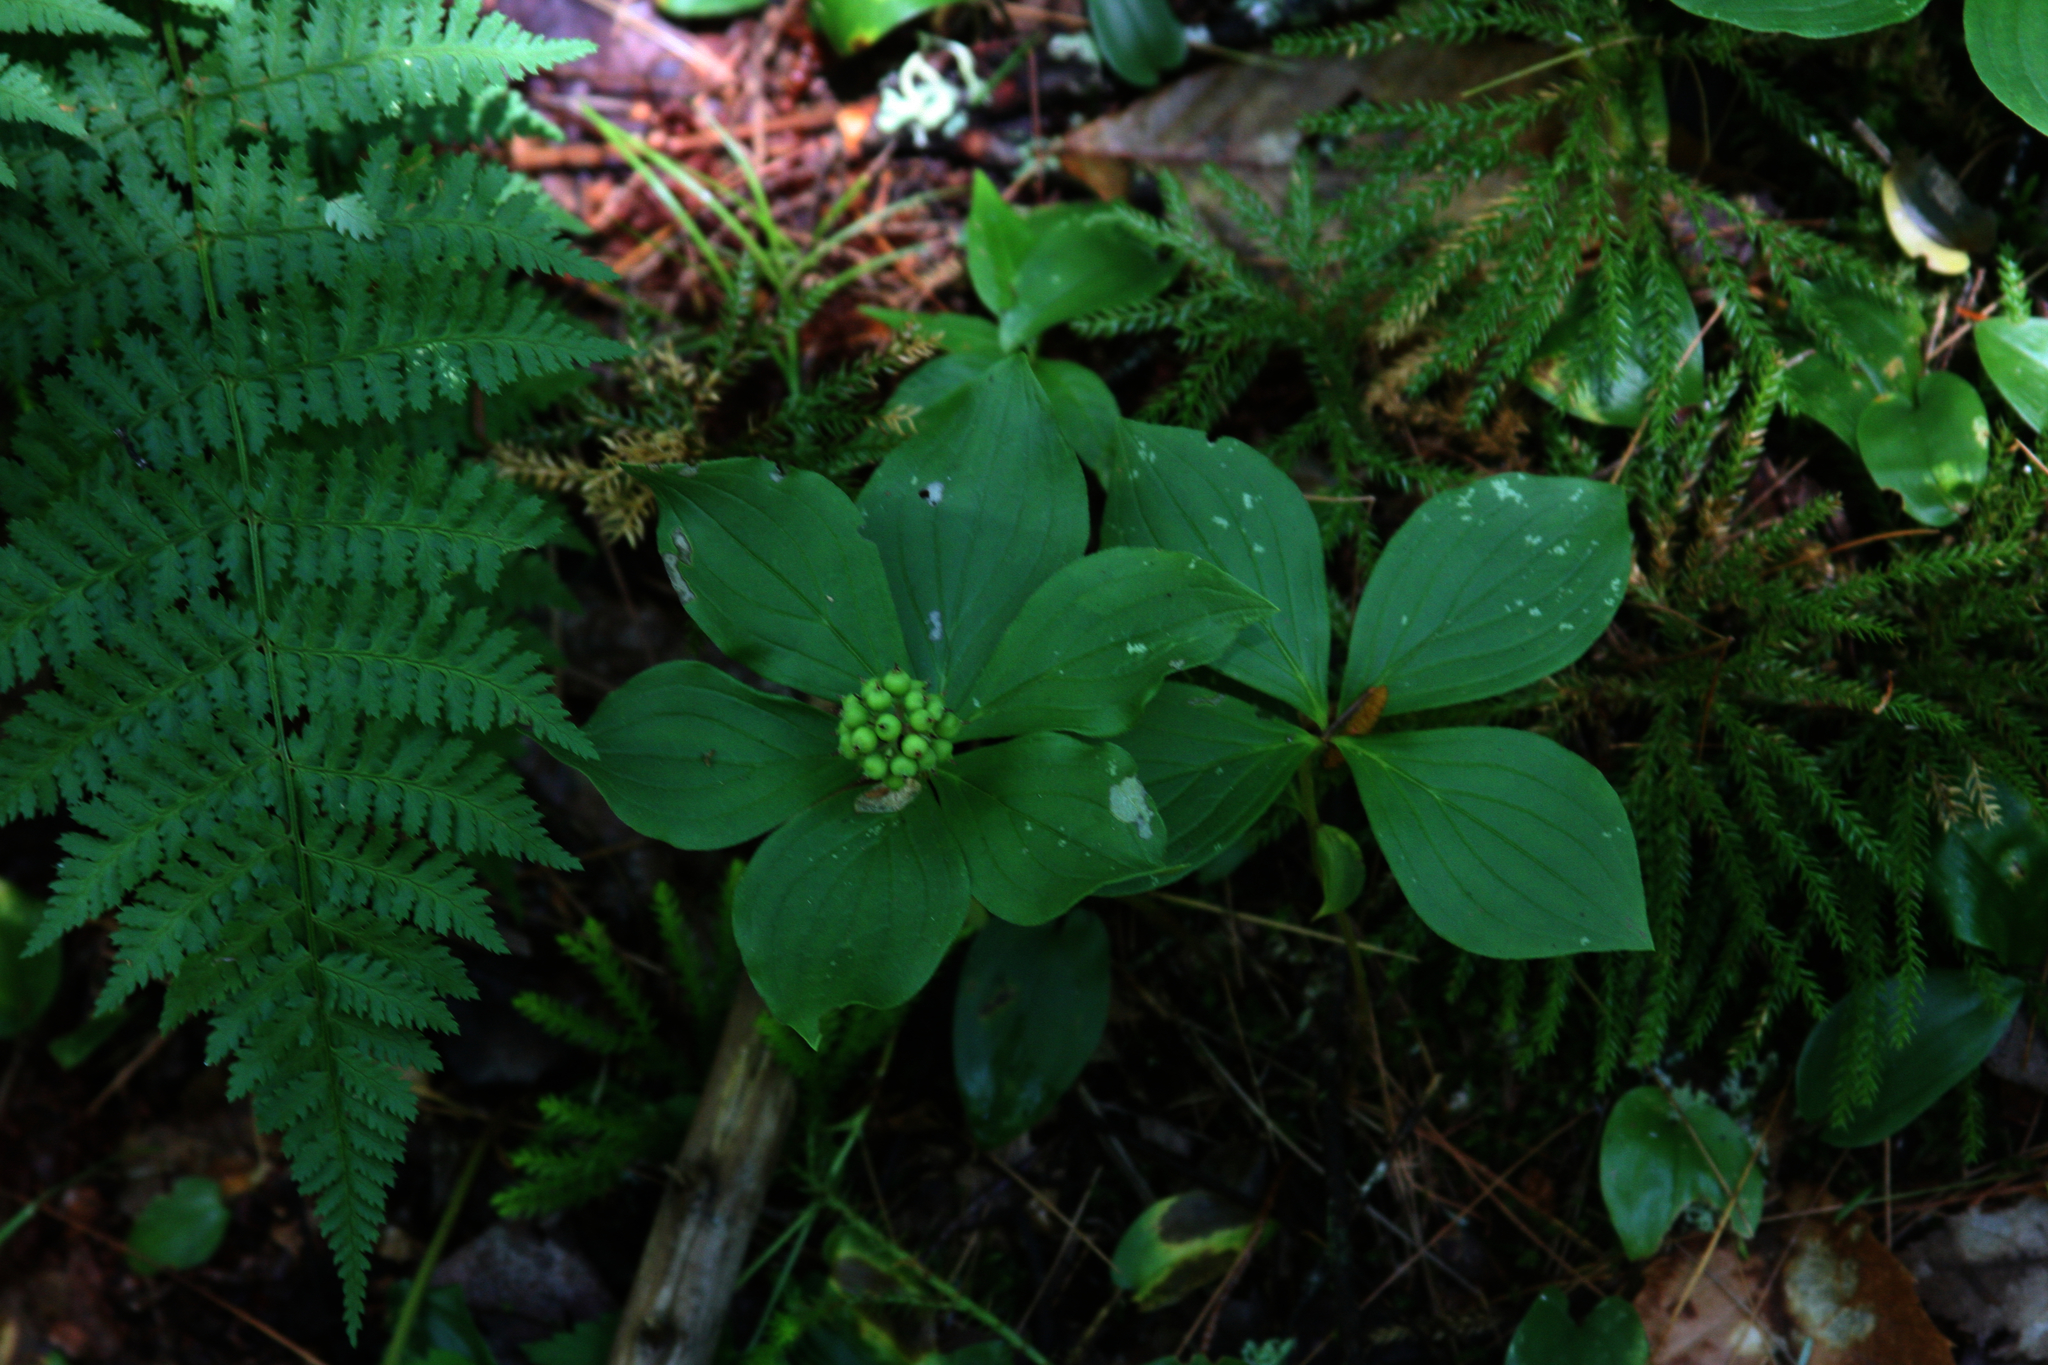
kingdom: Plantae
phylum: Tracheophyta
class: Magnoliopsida
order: Cornales
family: Cornaceae
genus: Cornus
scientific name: Cornus canadensis
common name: Creeping dogwood
